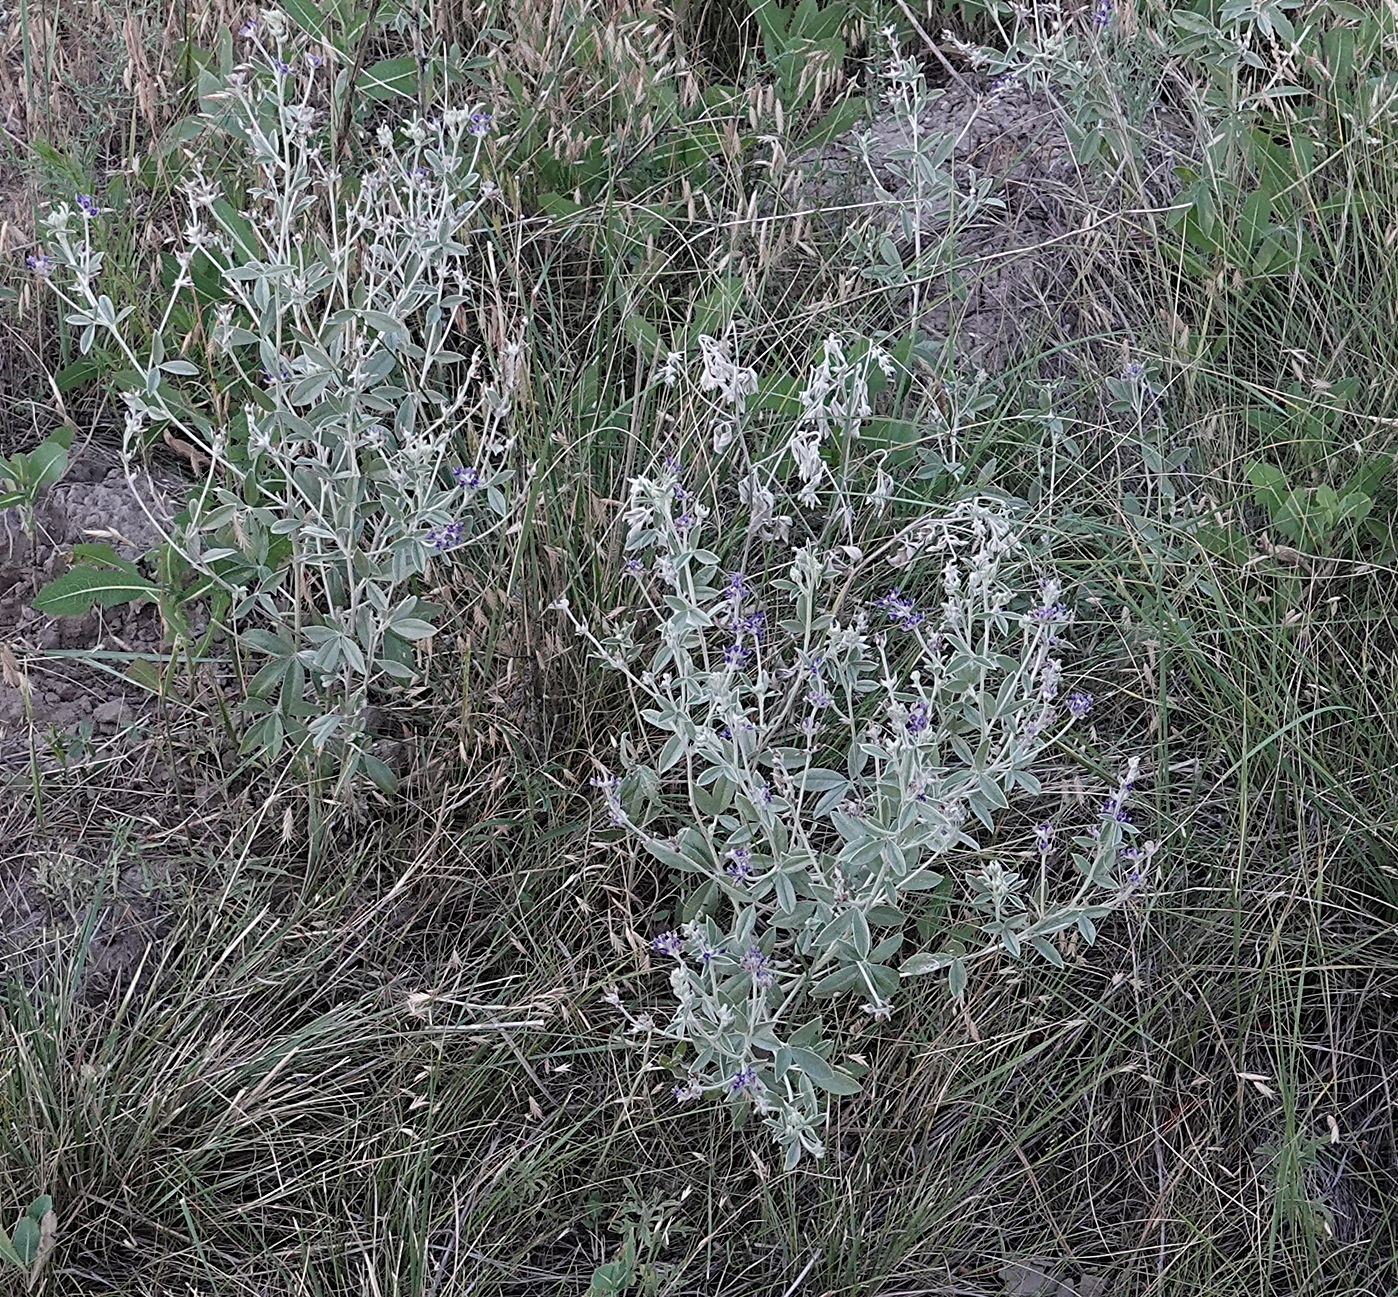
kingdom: Plantae
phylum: Tracheophyta
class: Magnoliopsida
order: Fabales
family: Fabaceae
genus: Pediomelum
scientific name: Pediomelum argophyllum
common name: Silver-leaved indian breadroot
